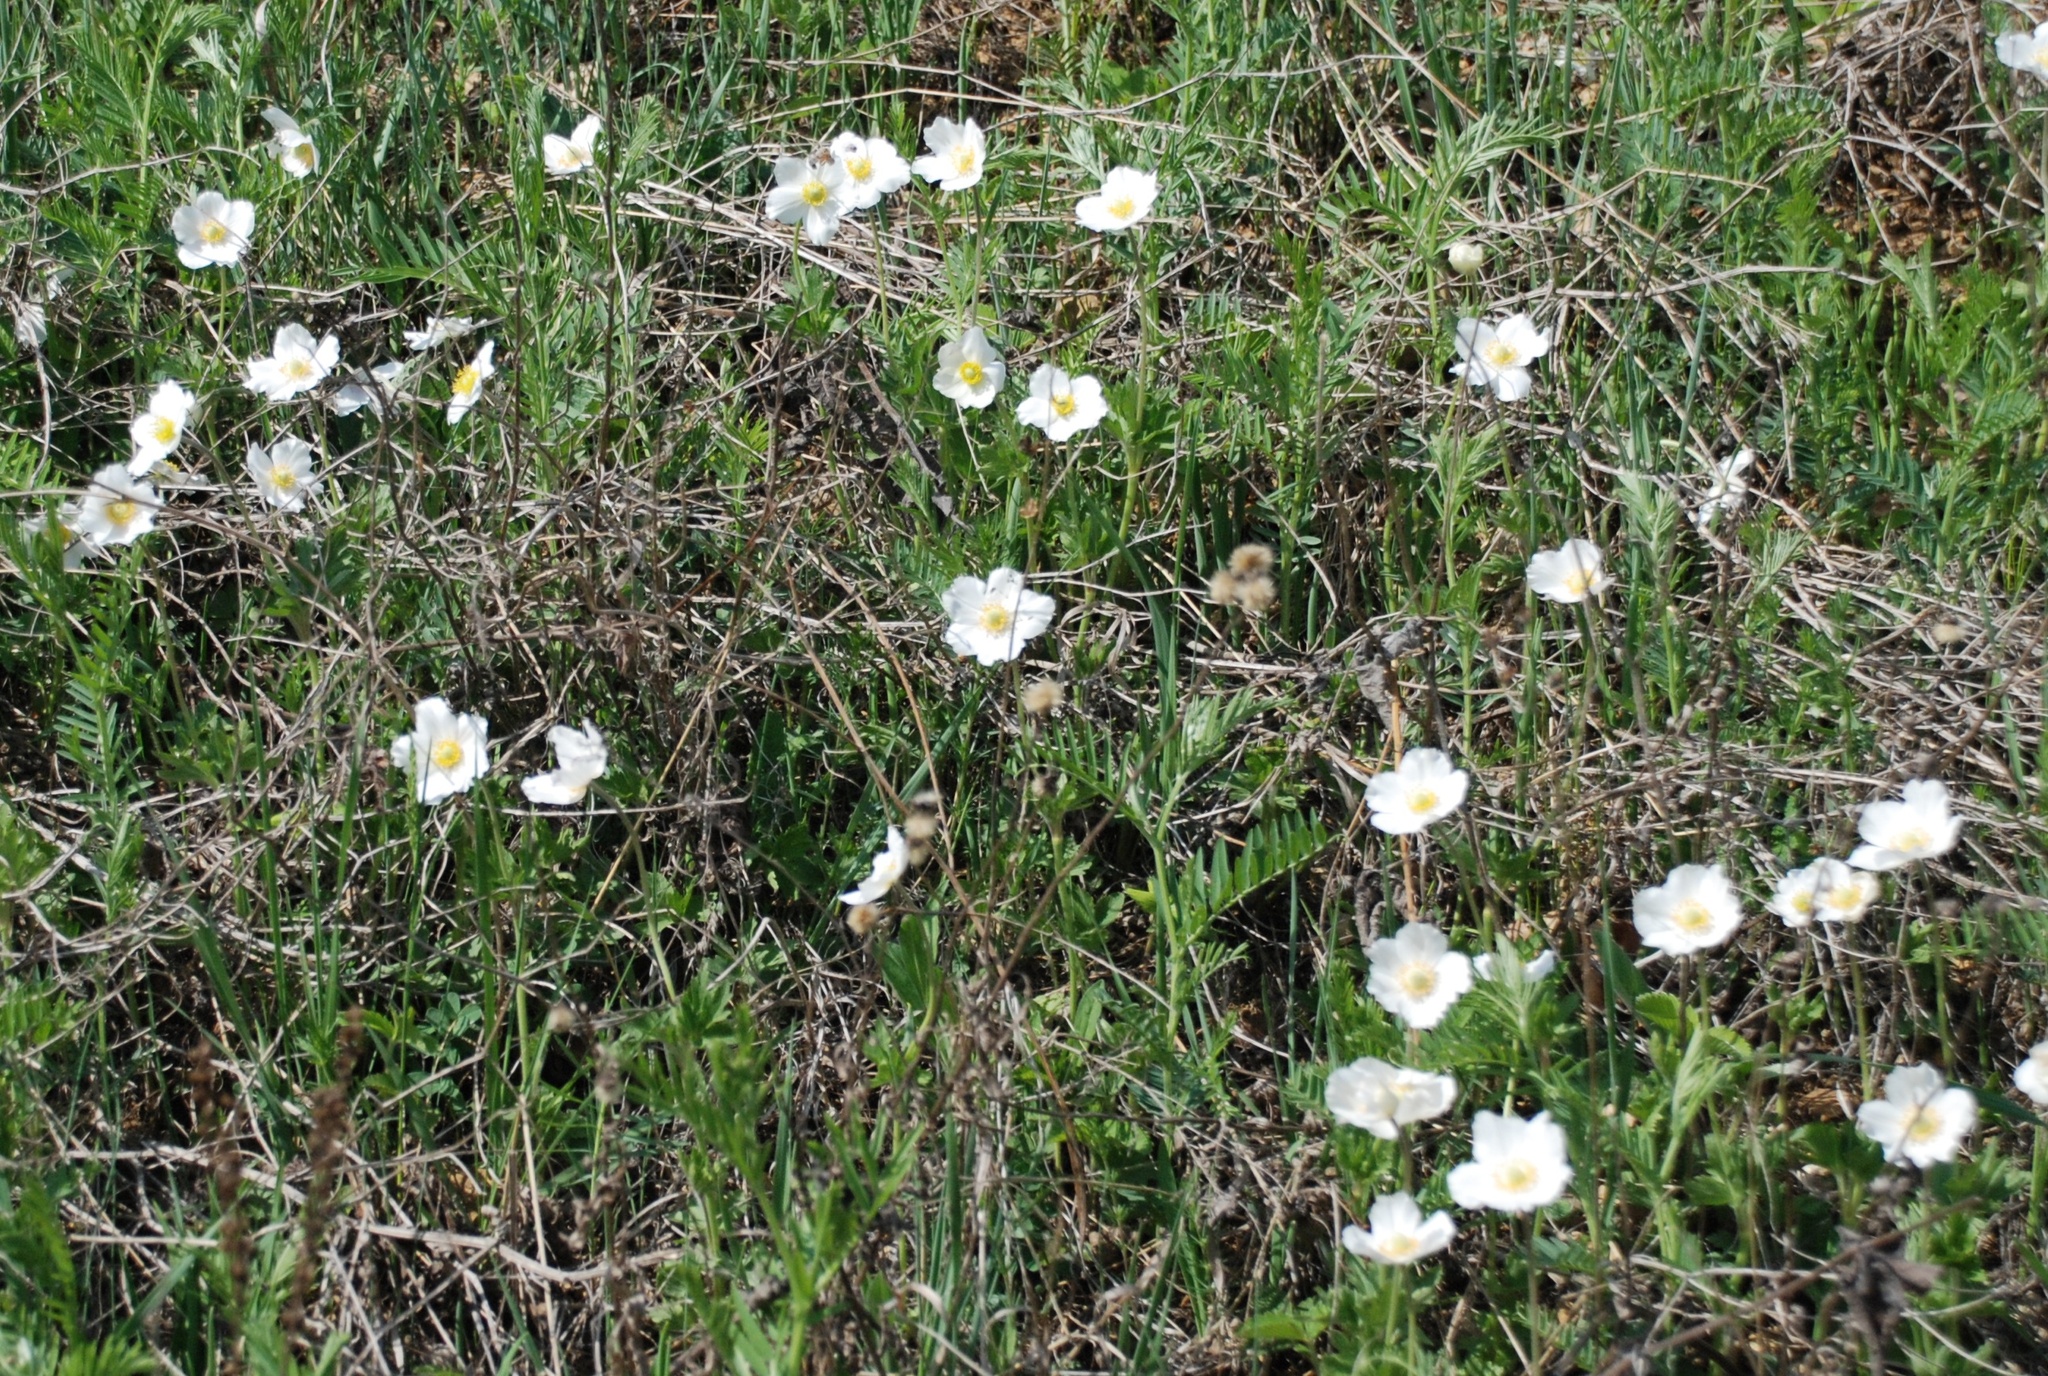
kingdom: Plantae
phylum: Tracheophyta
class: Magnoliopsida
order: Ranunculales
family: Ranunculaceae
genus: Anemone
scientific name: Anemone sylvestris
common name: Snowdrop anemone
